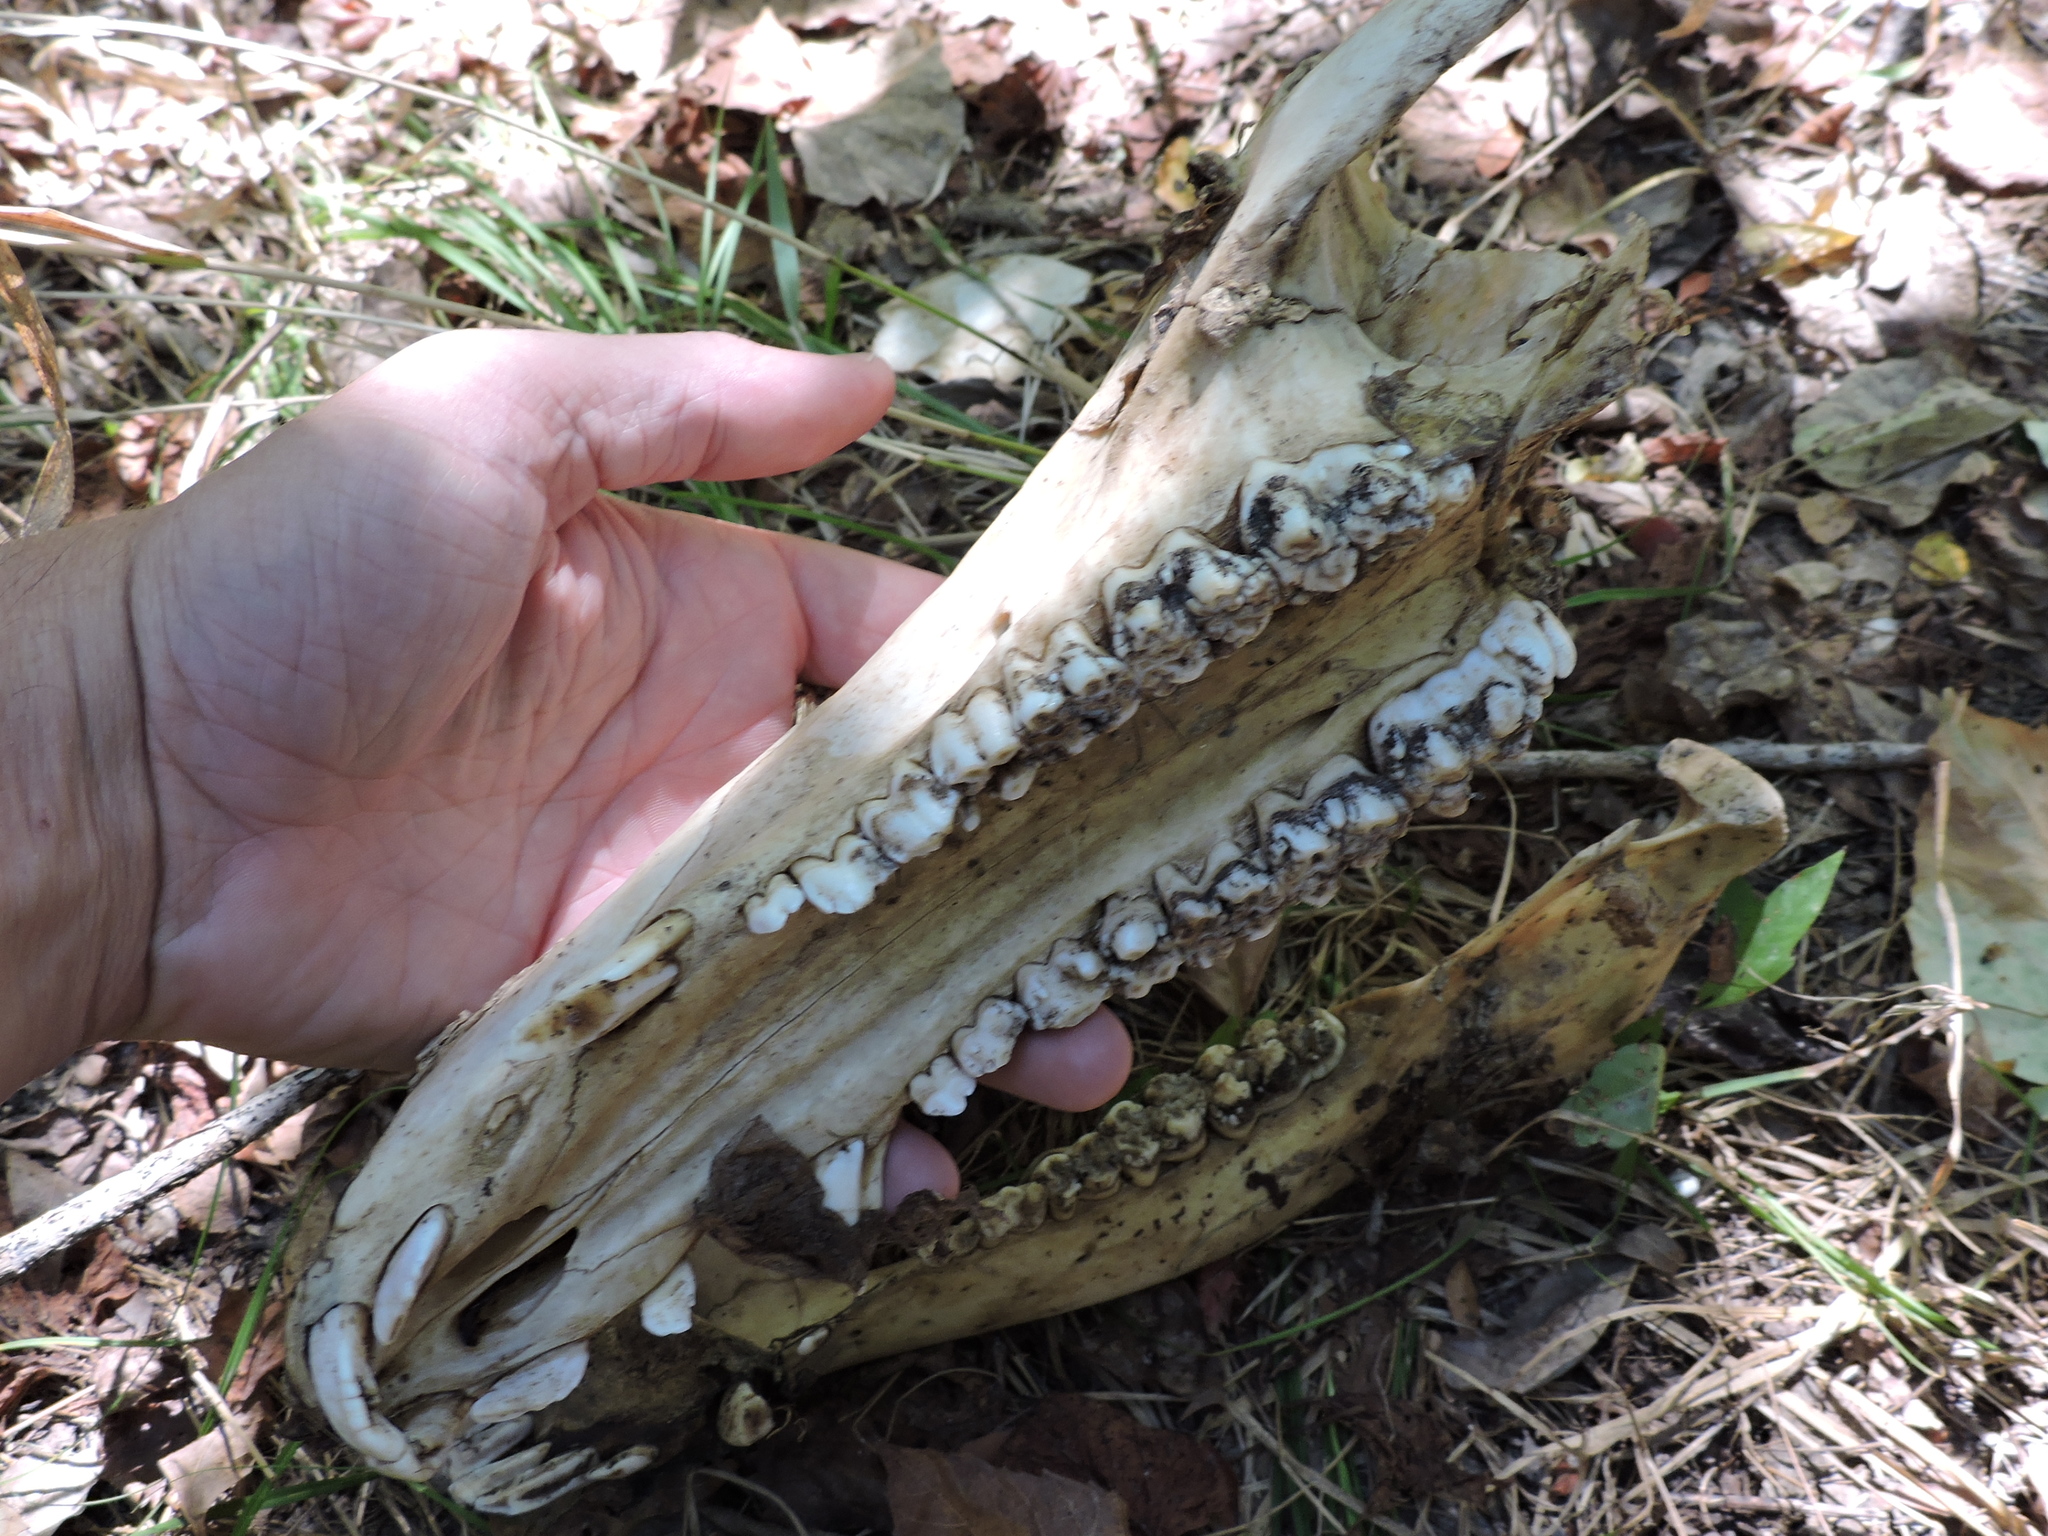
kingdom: Animalia
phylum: Chordata
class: Mammalia
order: Artiodactyla
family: Suidae
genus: Sus
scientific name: Sus scrofa
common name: Wild boar
